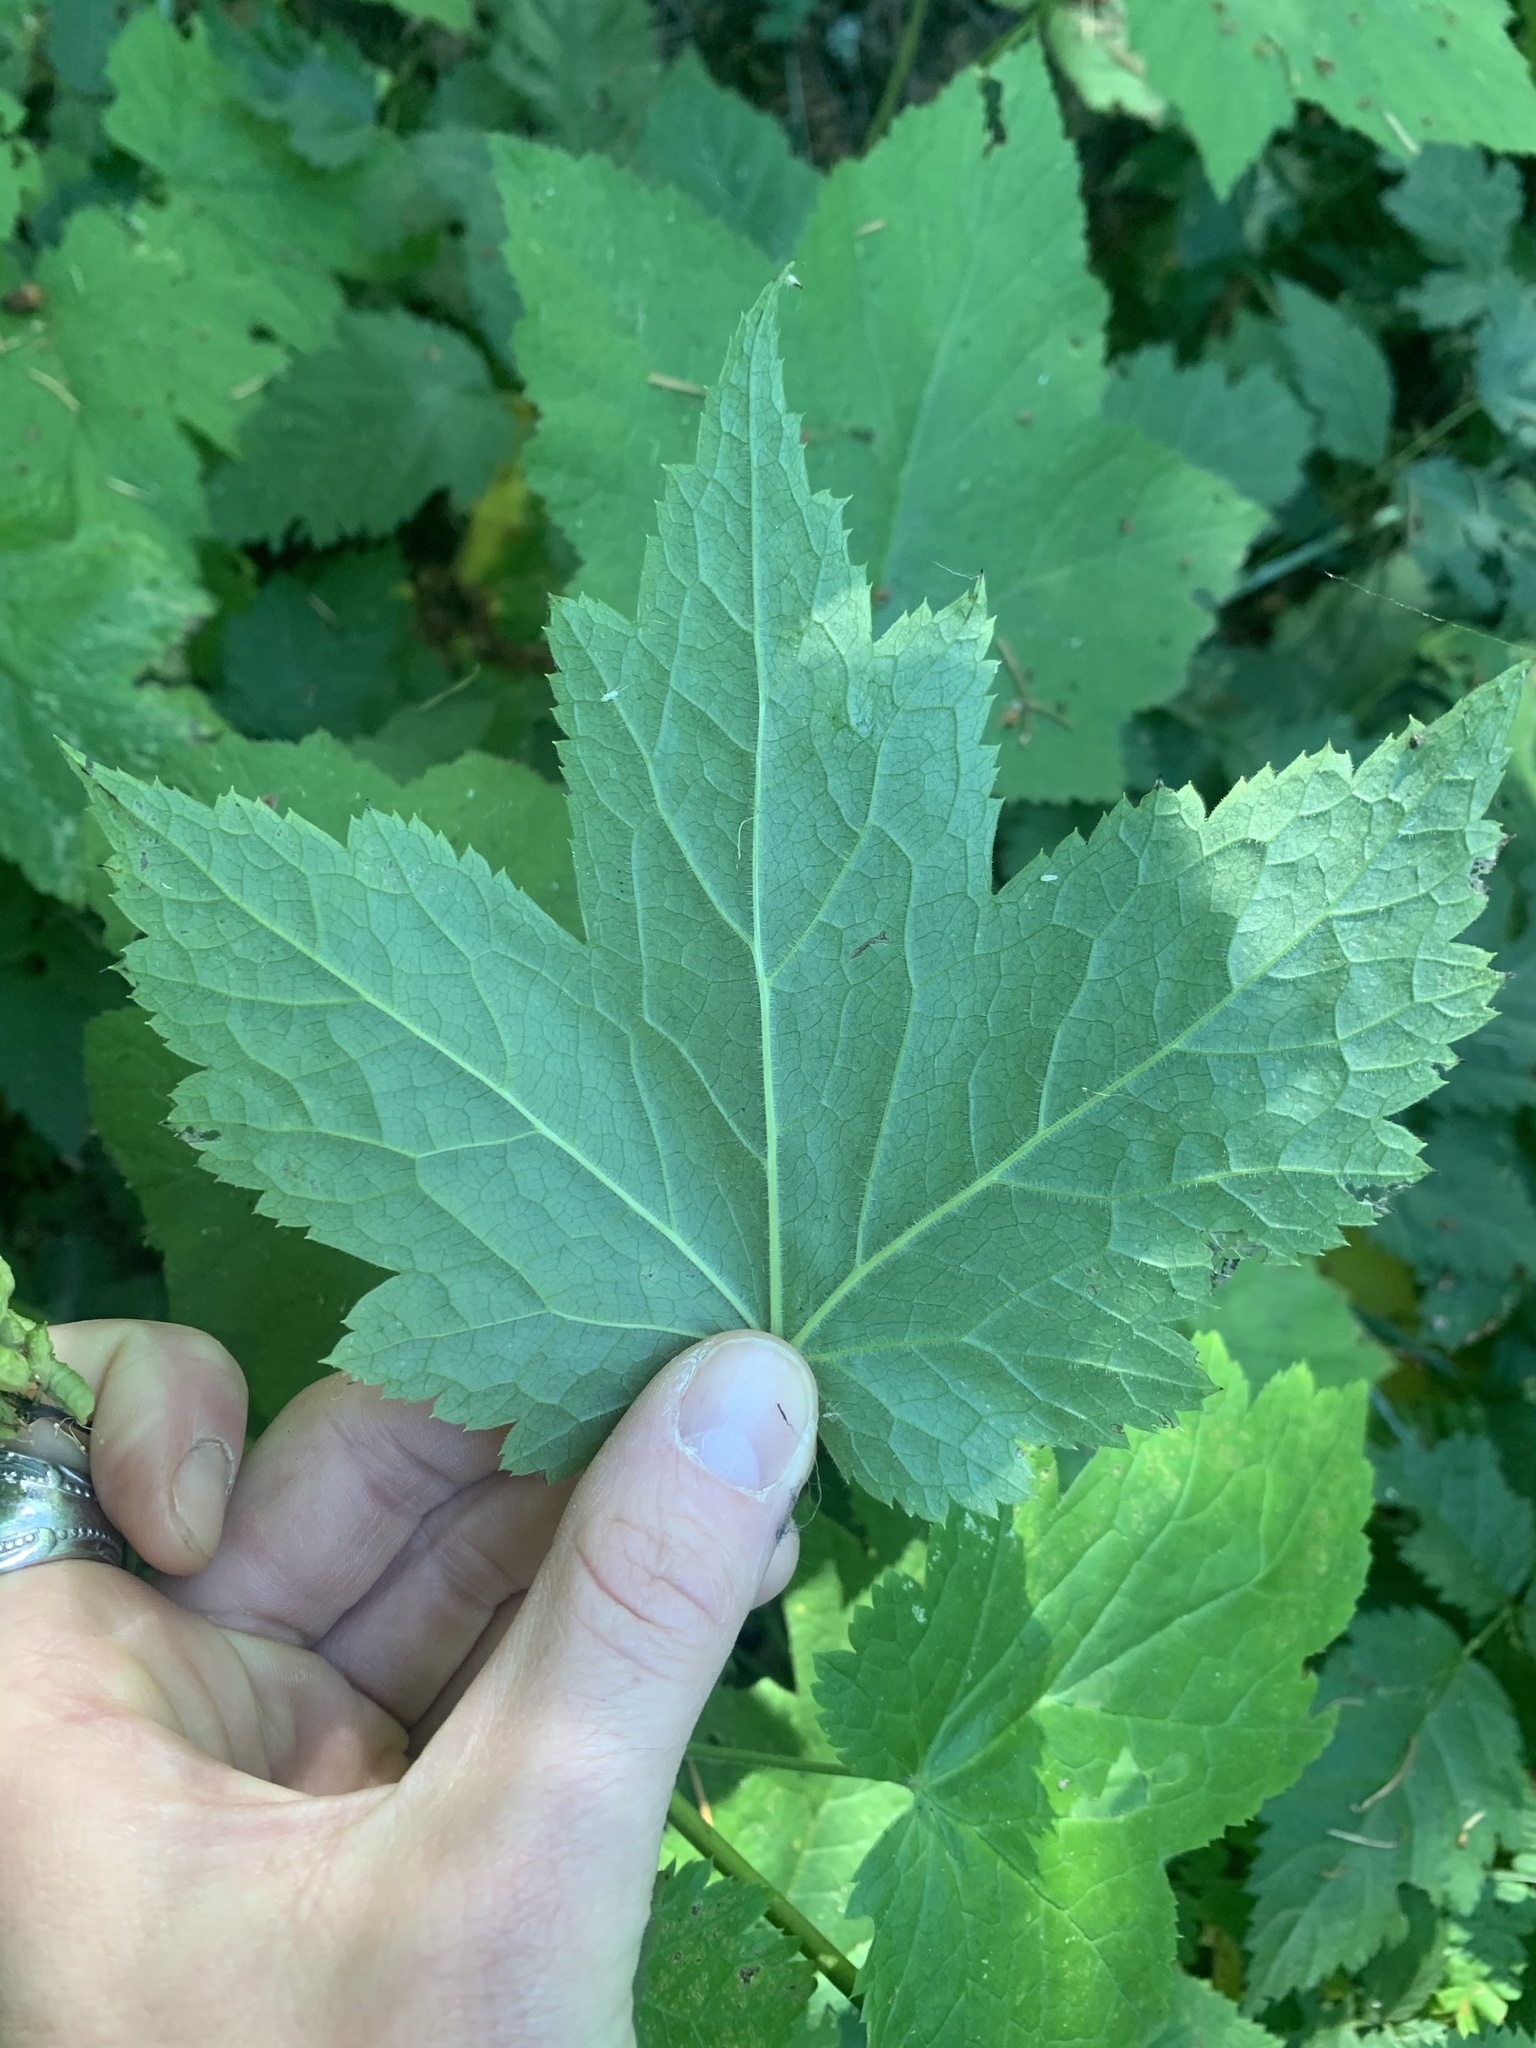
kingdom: Plantae
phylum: Tracheophyta
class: Magnoliopsida
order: Ranunculales
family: Ranunculaceae
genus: Actaea
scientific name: Actaea elata
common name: Tall bugbane
